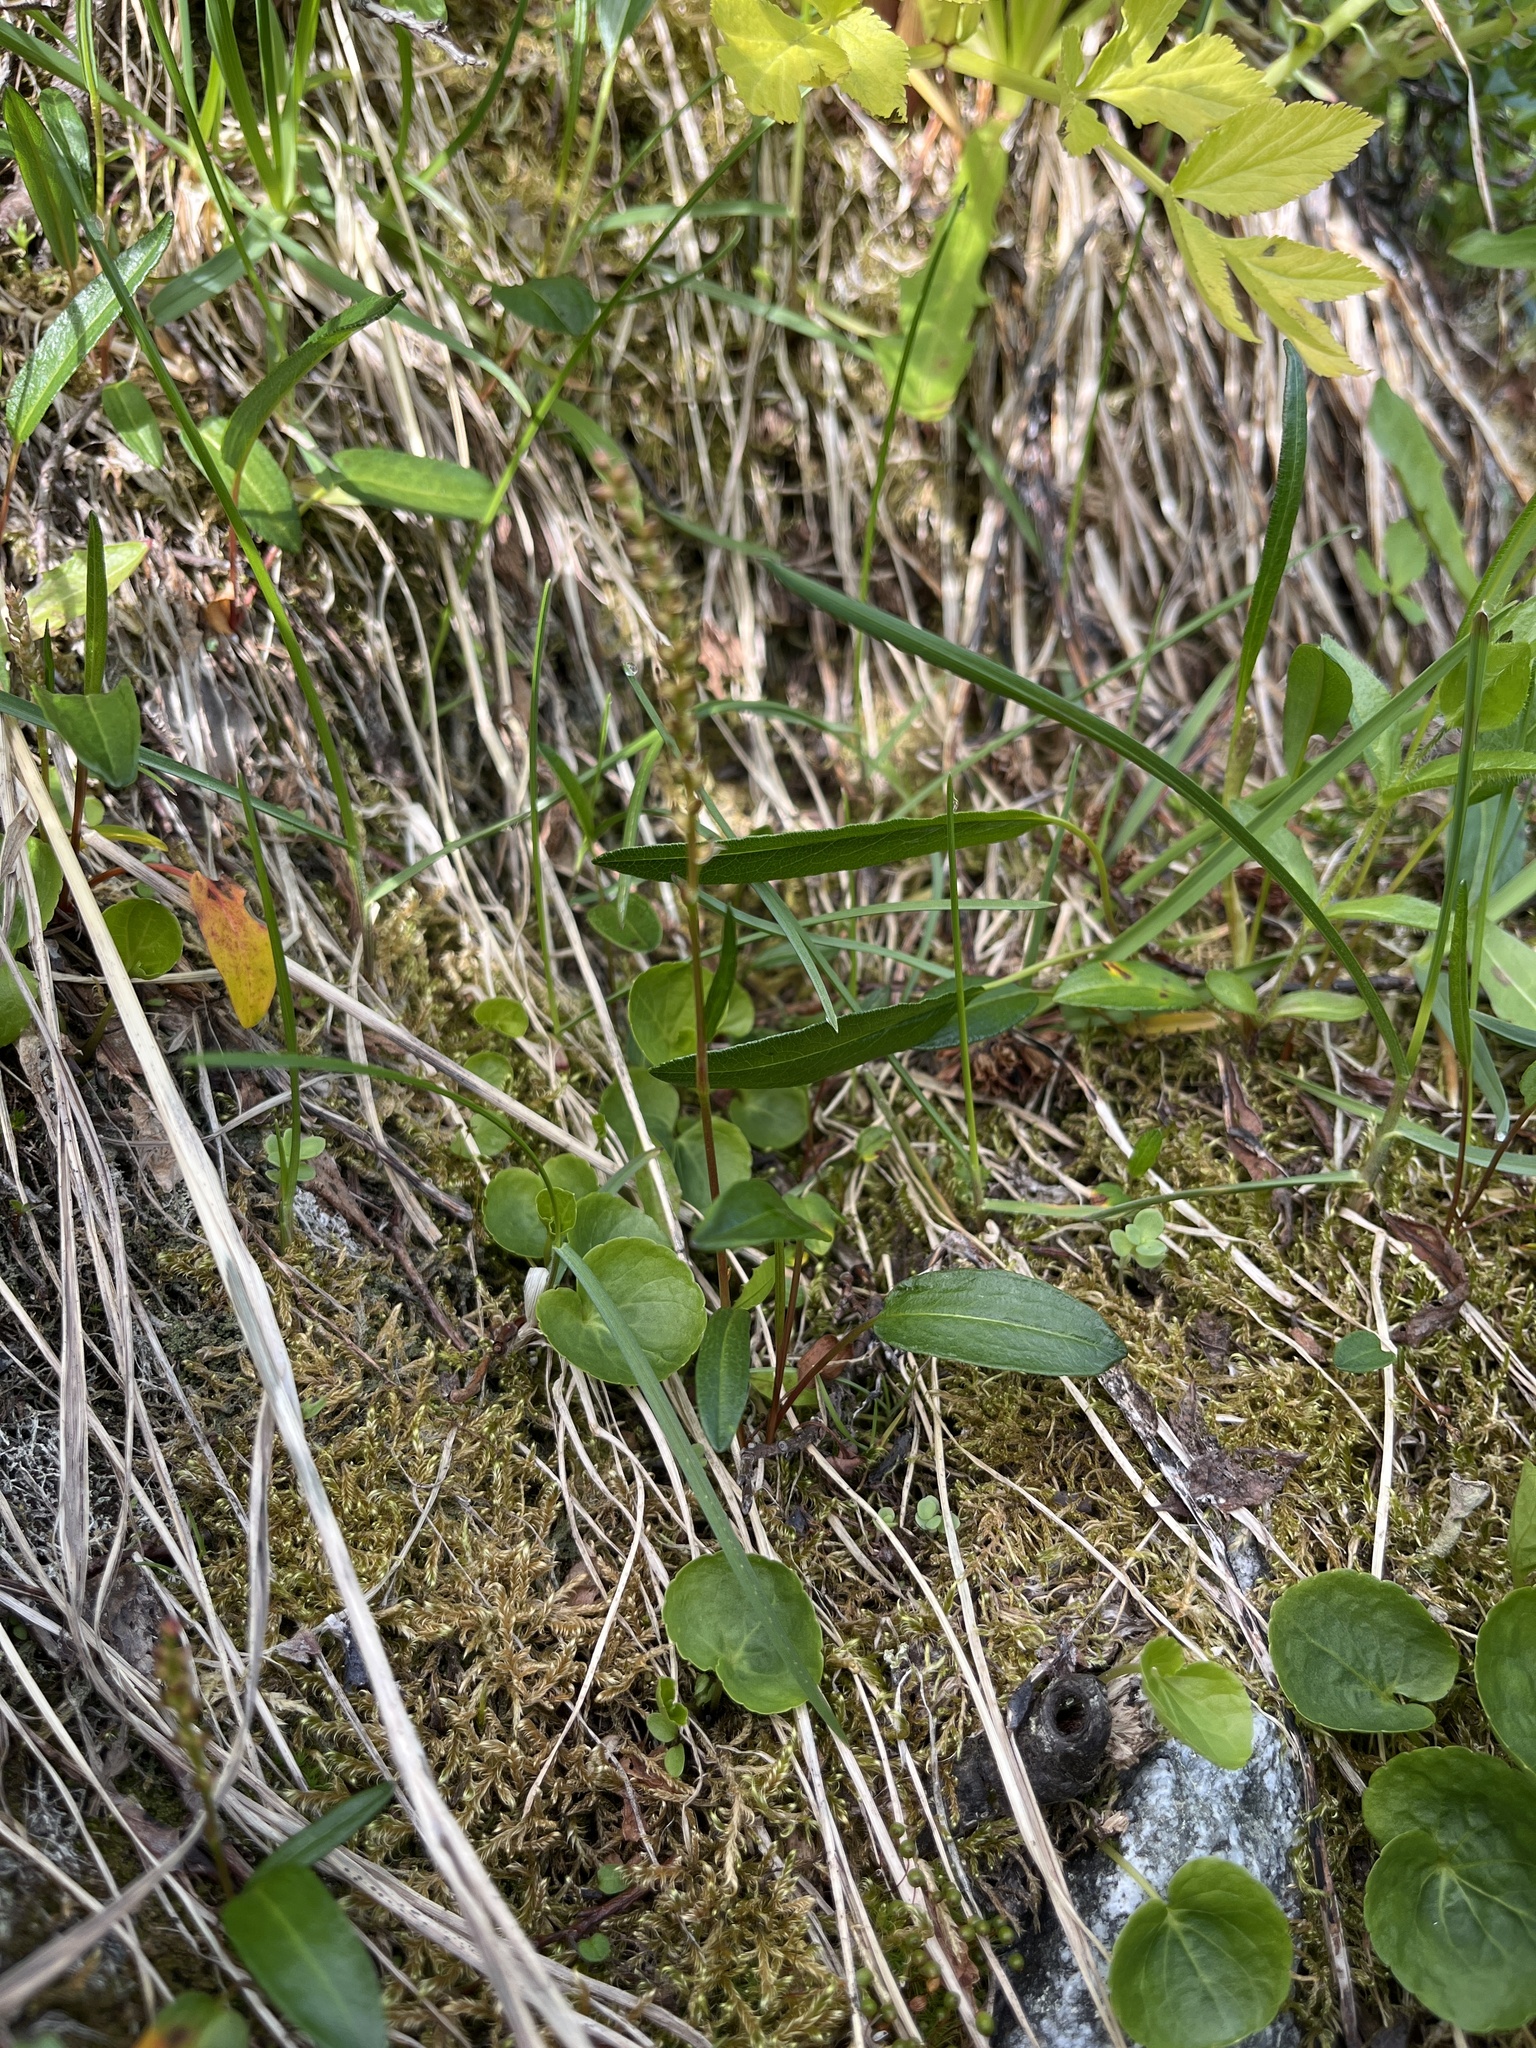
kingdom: Plantae
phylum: Tracheophyta
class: Magnoliopsida
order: Caryophyllales
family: Polygonaceae
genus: Bistorta
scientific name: Bistorta vivipara
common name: Alpine bistort
